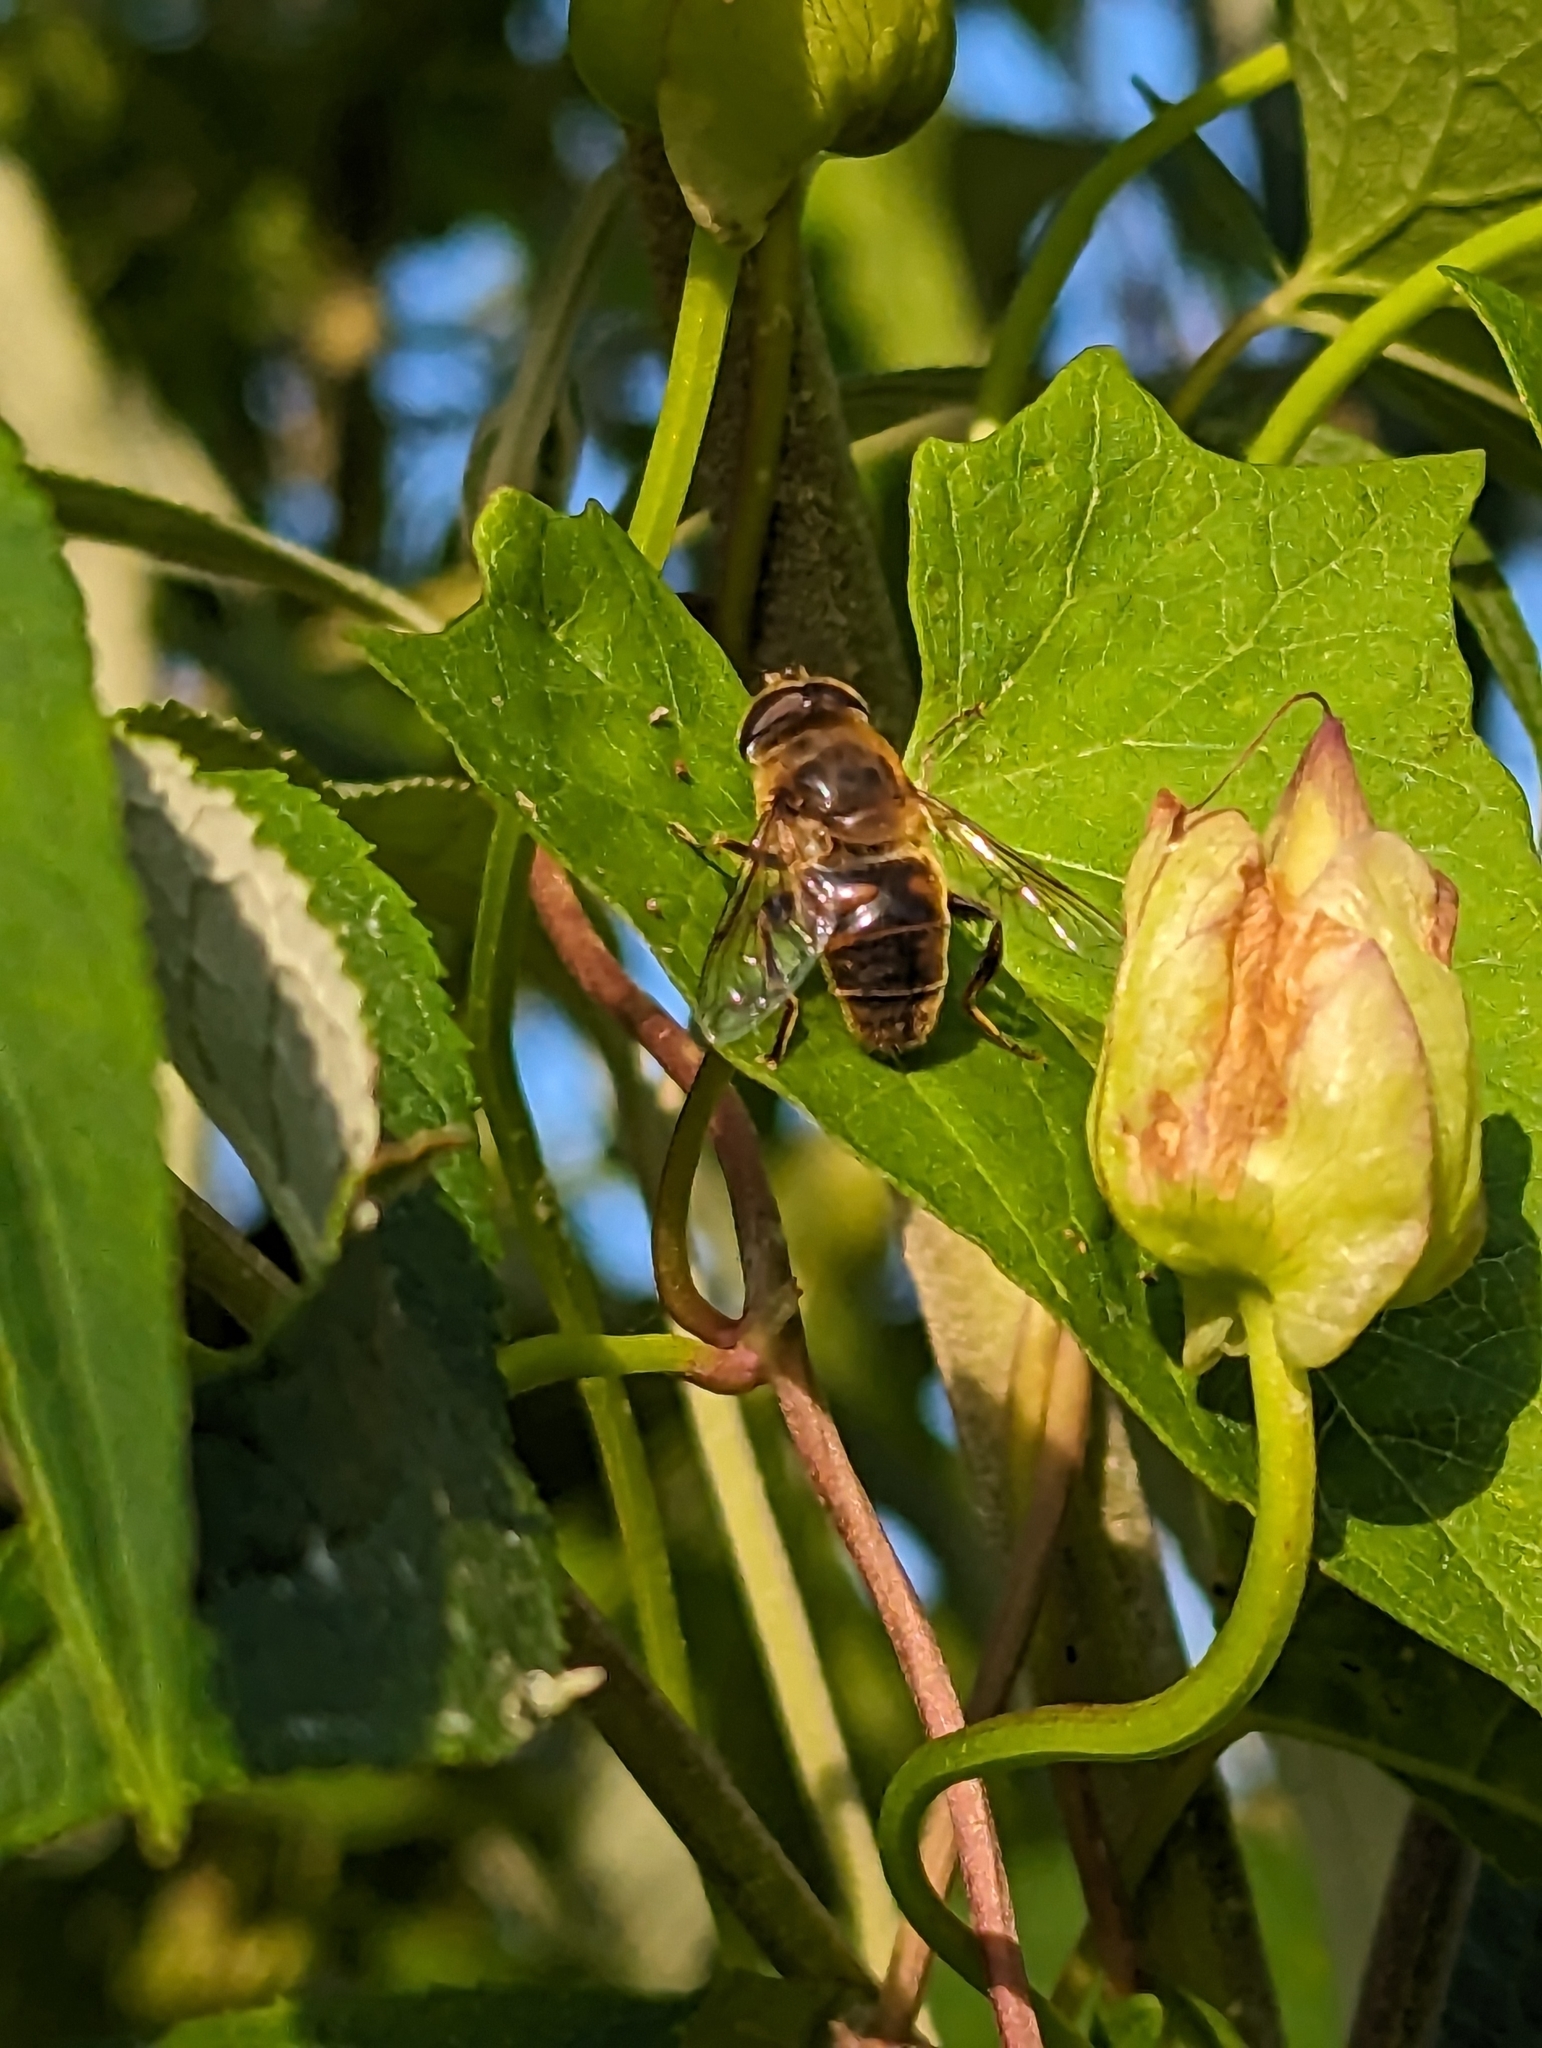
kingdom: Animalia
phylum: Arthropoda
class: Insecta
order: Diptera
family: Syrphidae
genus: Eristalis
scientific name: Eristalis tenax
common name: Drone fly
